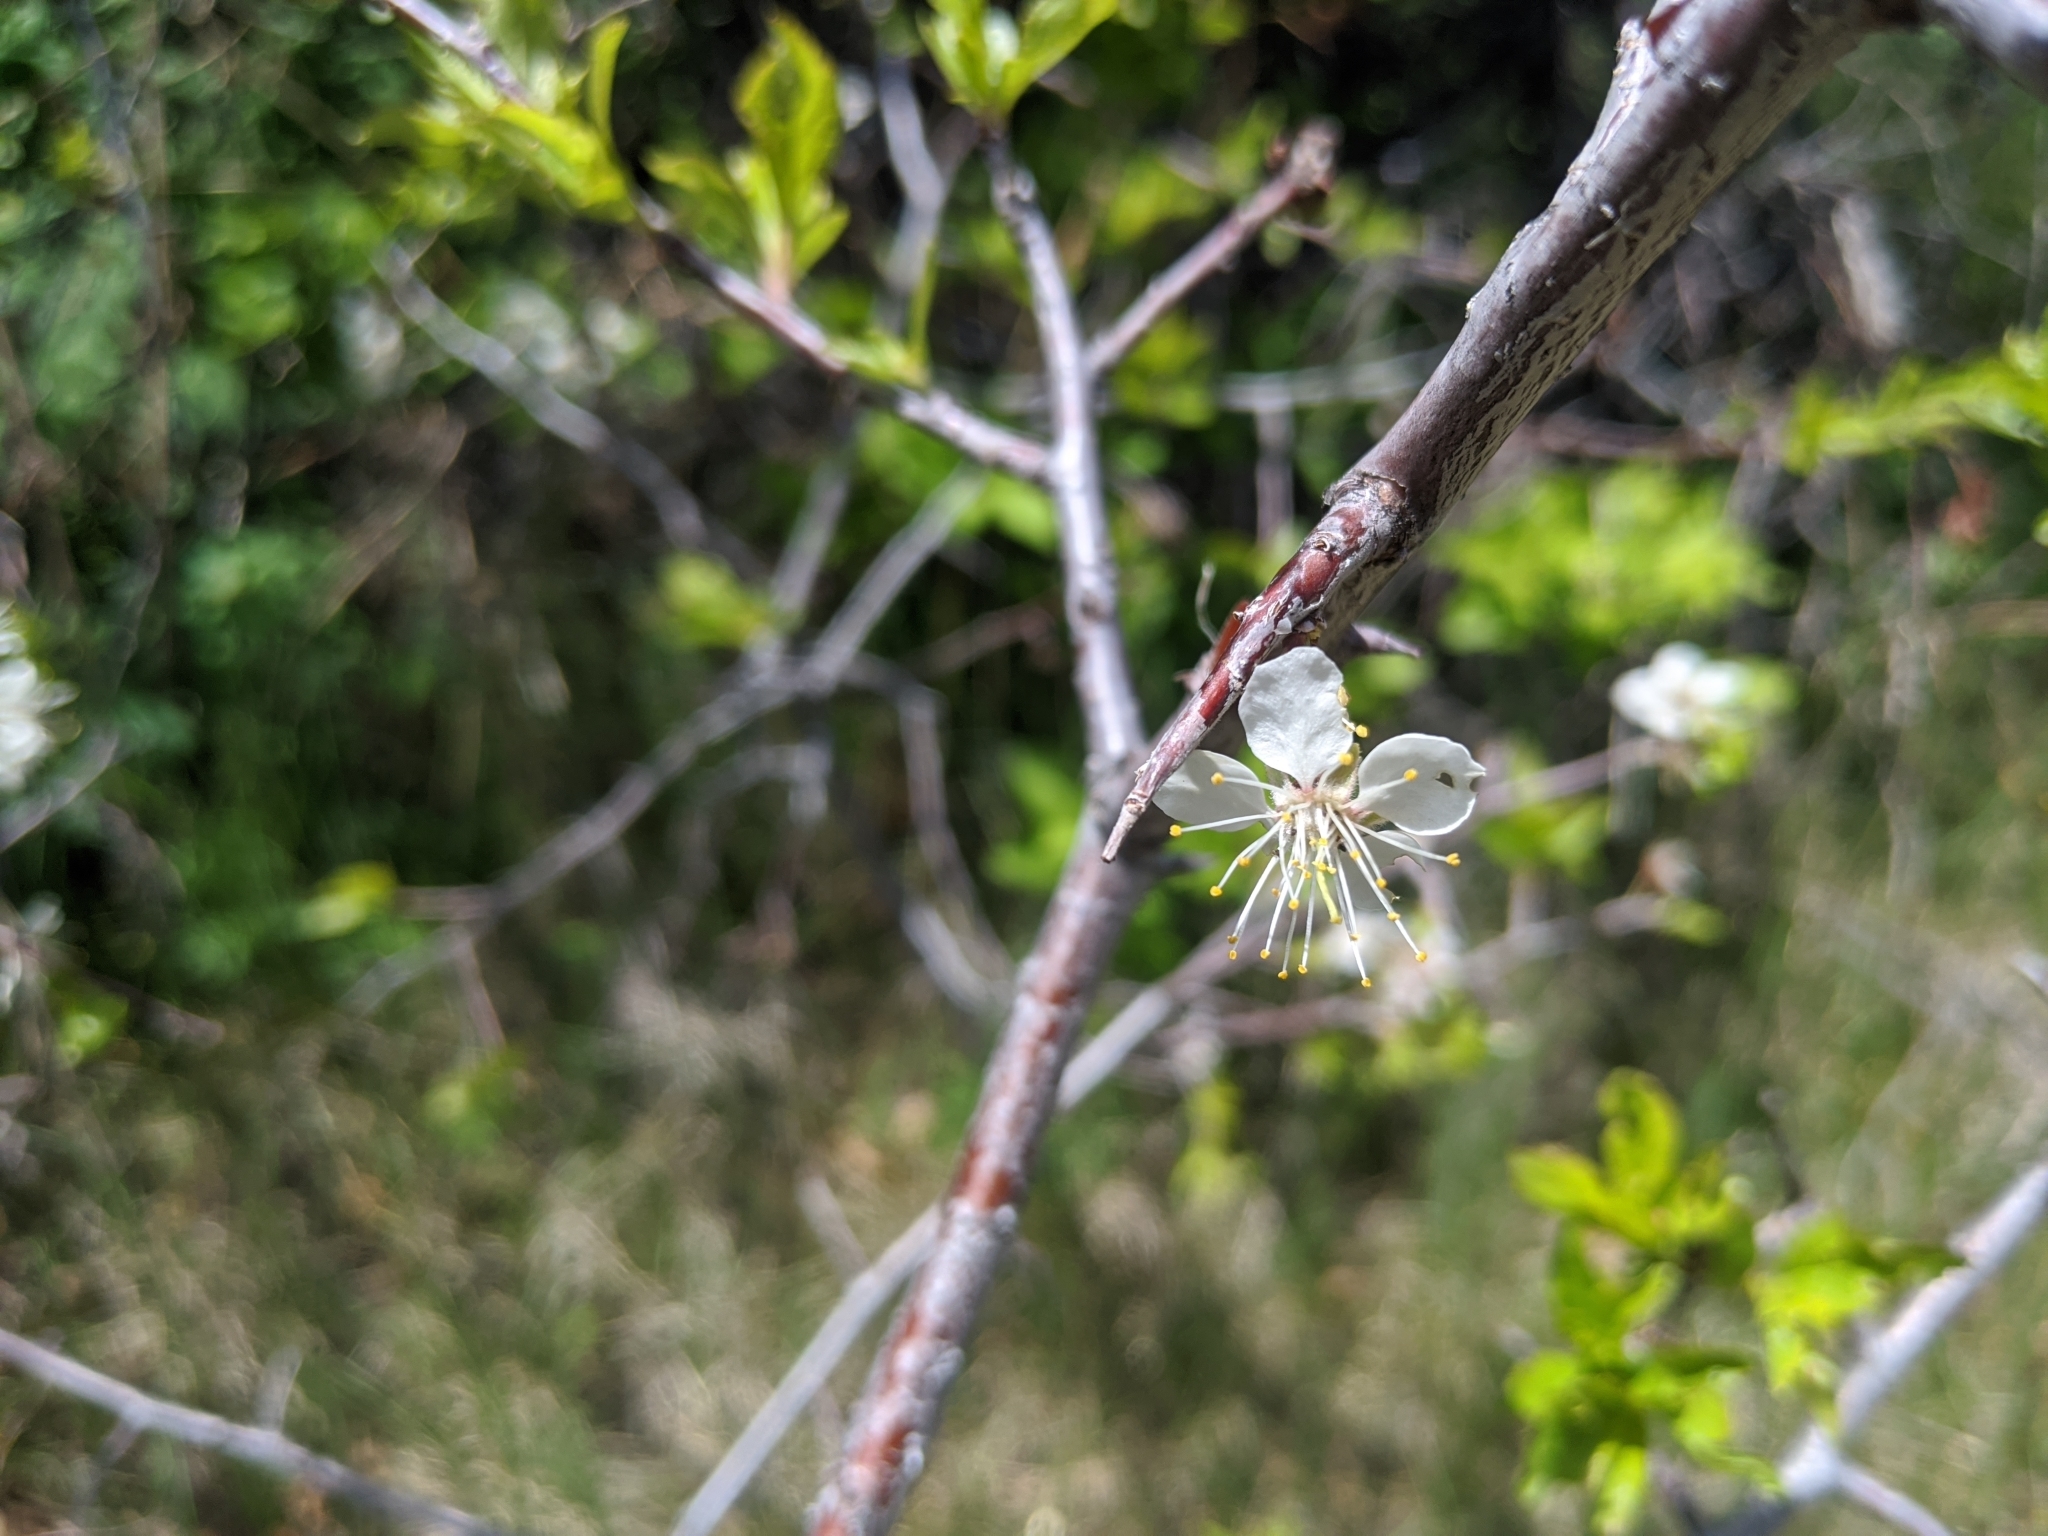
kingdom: Plantae
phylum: Tracheophyta
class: Magnoliopsida
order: Rosales
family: Rosaceae
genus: Prunus
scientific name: Prunus americana
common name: American plum
